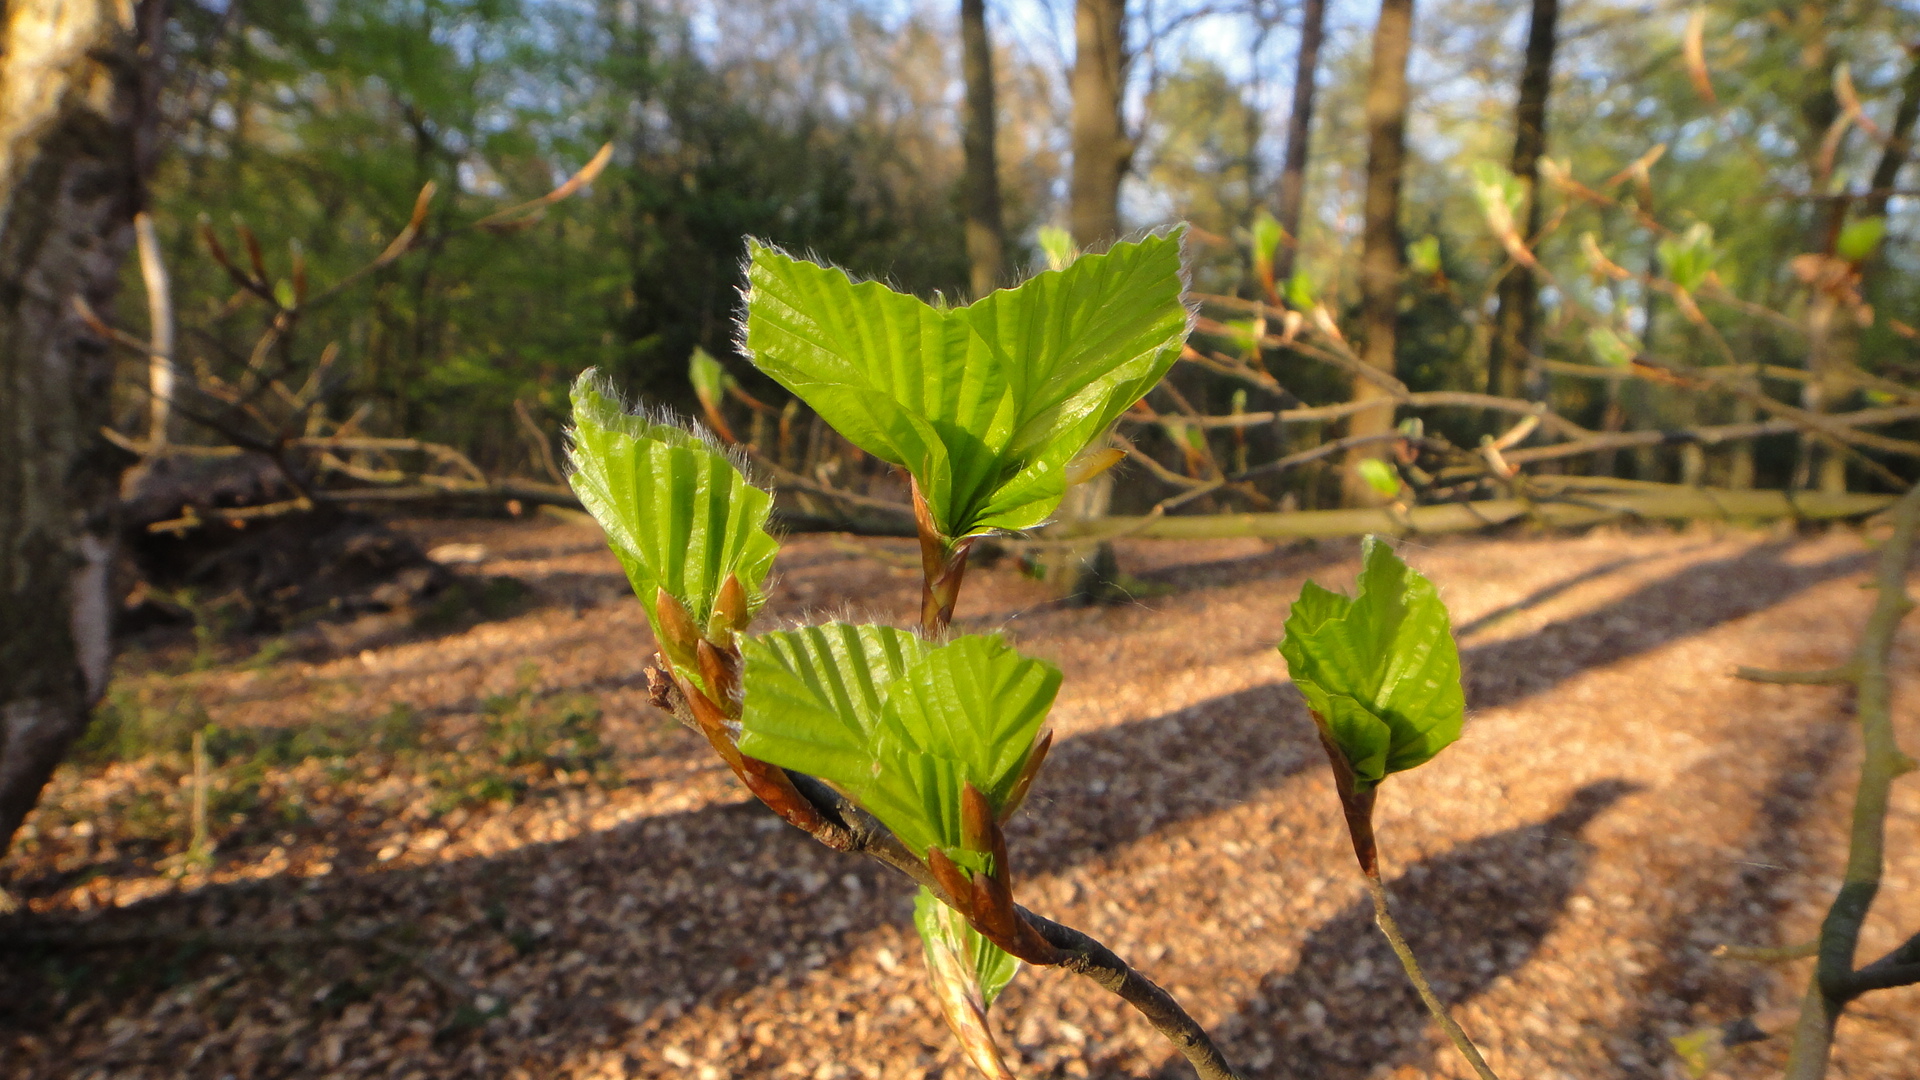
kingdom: Plantae
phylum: Tracheophyta
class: Magnoliopsida
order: Fagales
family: Fagaceae
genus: Fagus
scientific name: Fagus sylvatica
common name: Beech
